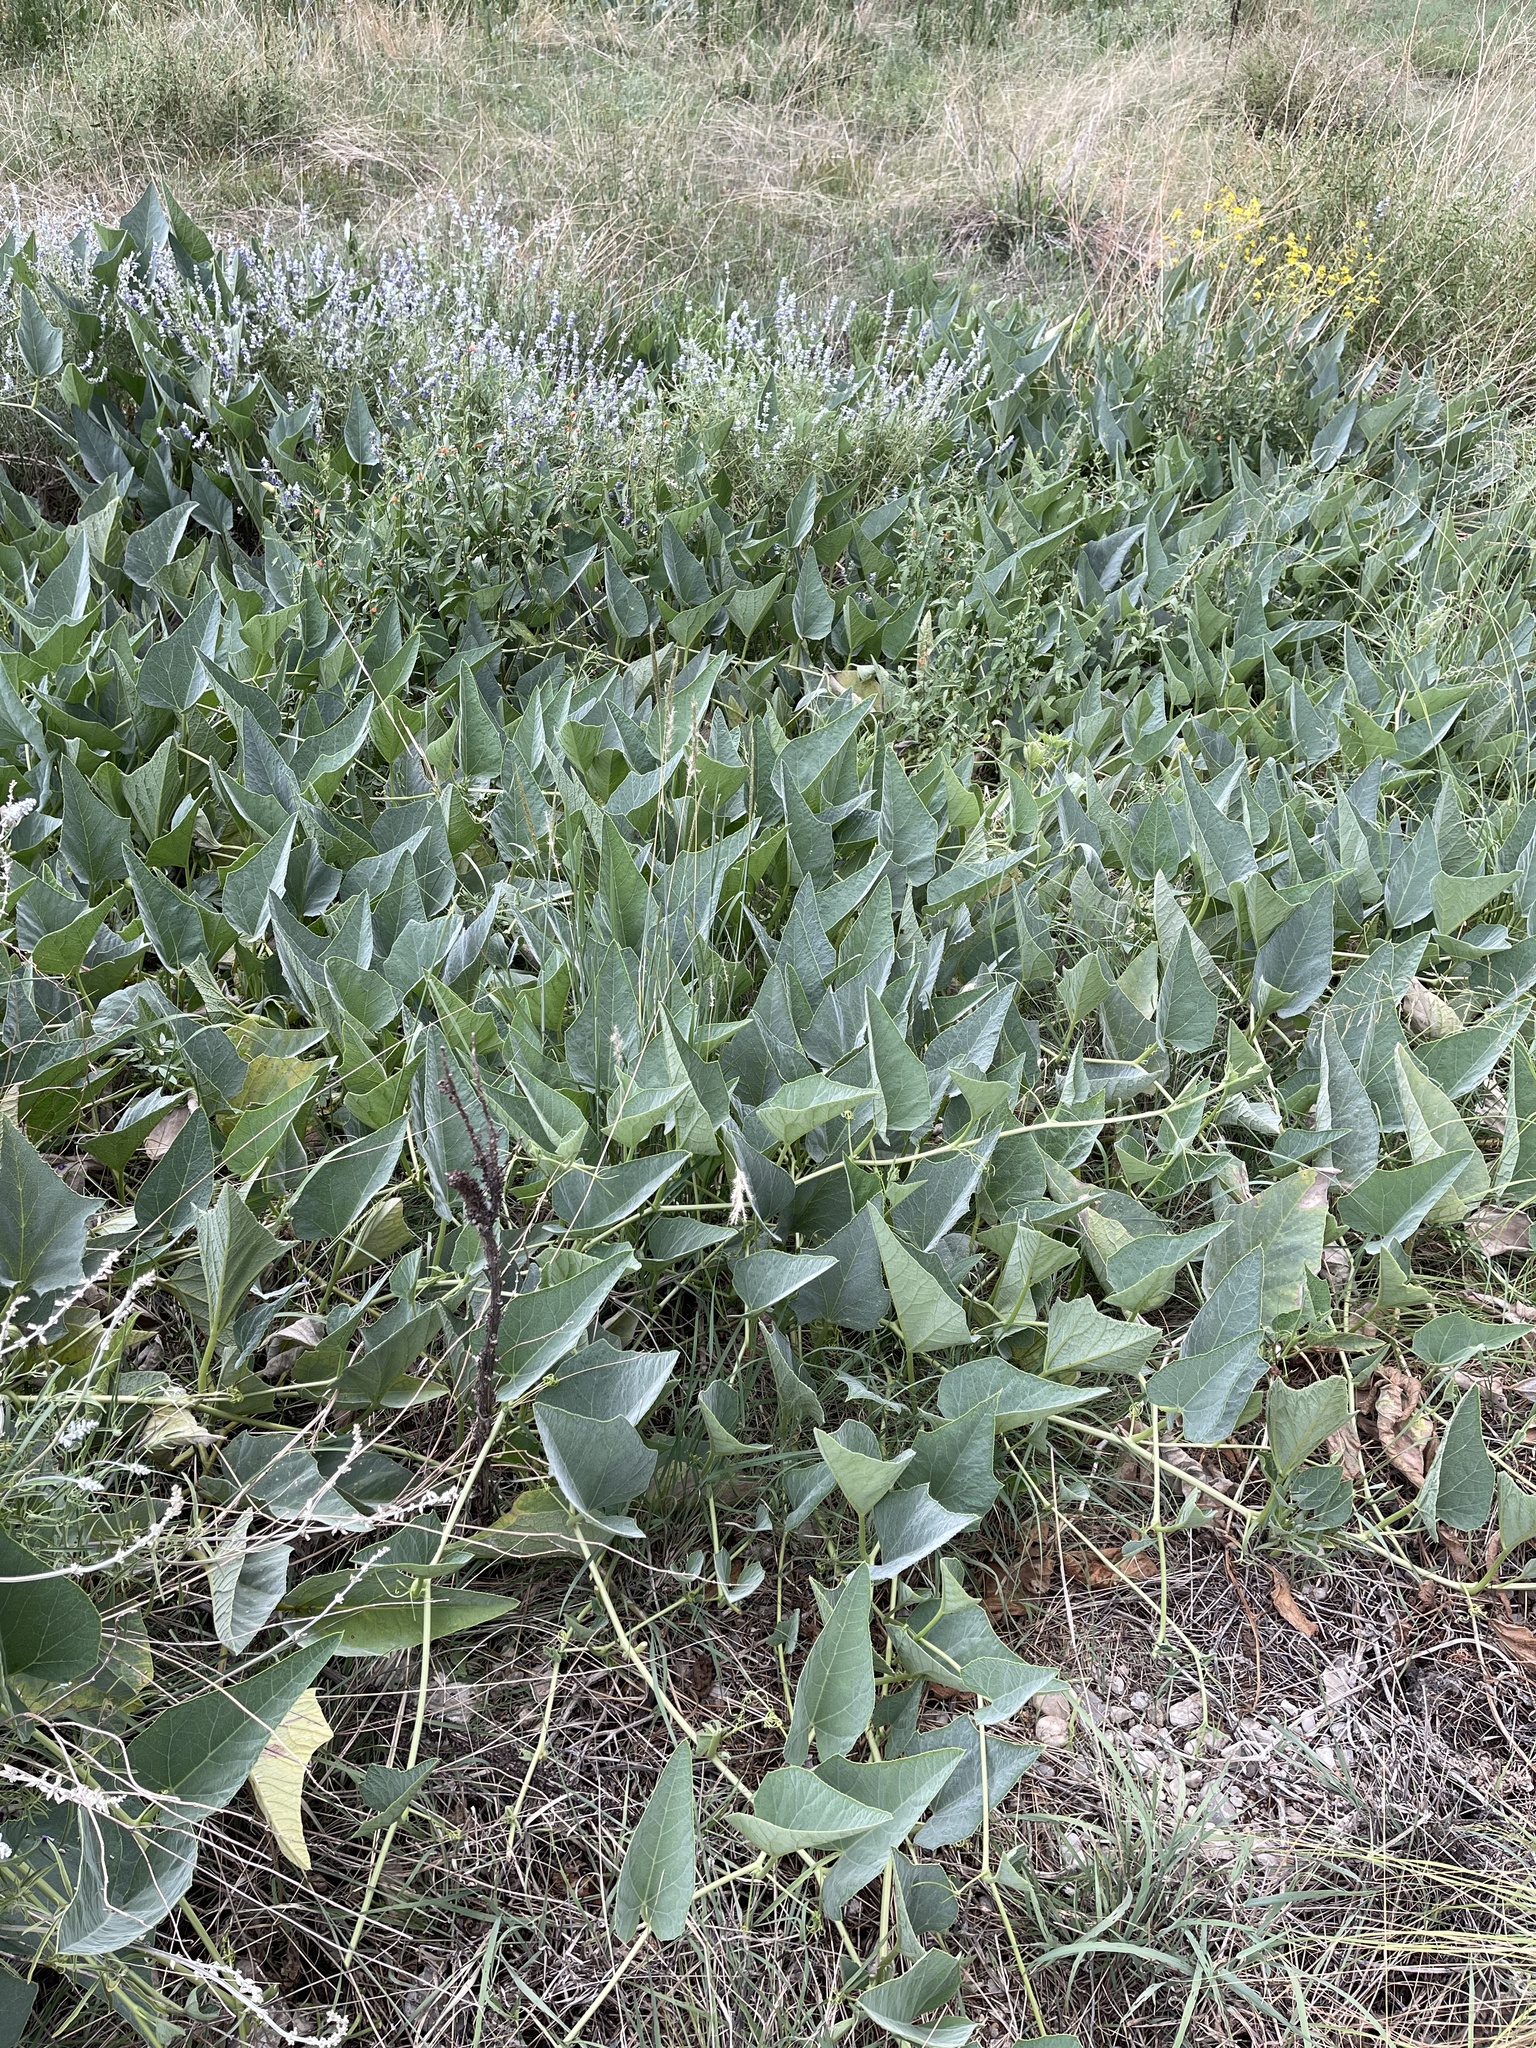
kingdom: Plantae
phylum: Tracheophyta
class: Magnoliopsida
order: Cucurbitales
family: Cucurbitaceae
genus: Cucurbita
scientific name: Cucurbita foetidissima
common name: Buffalo gourd
